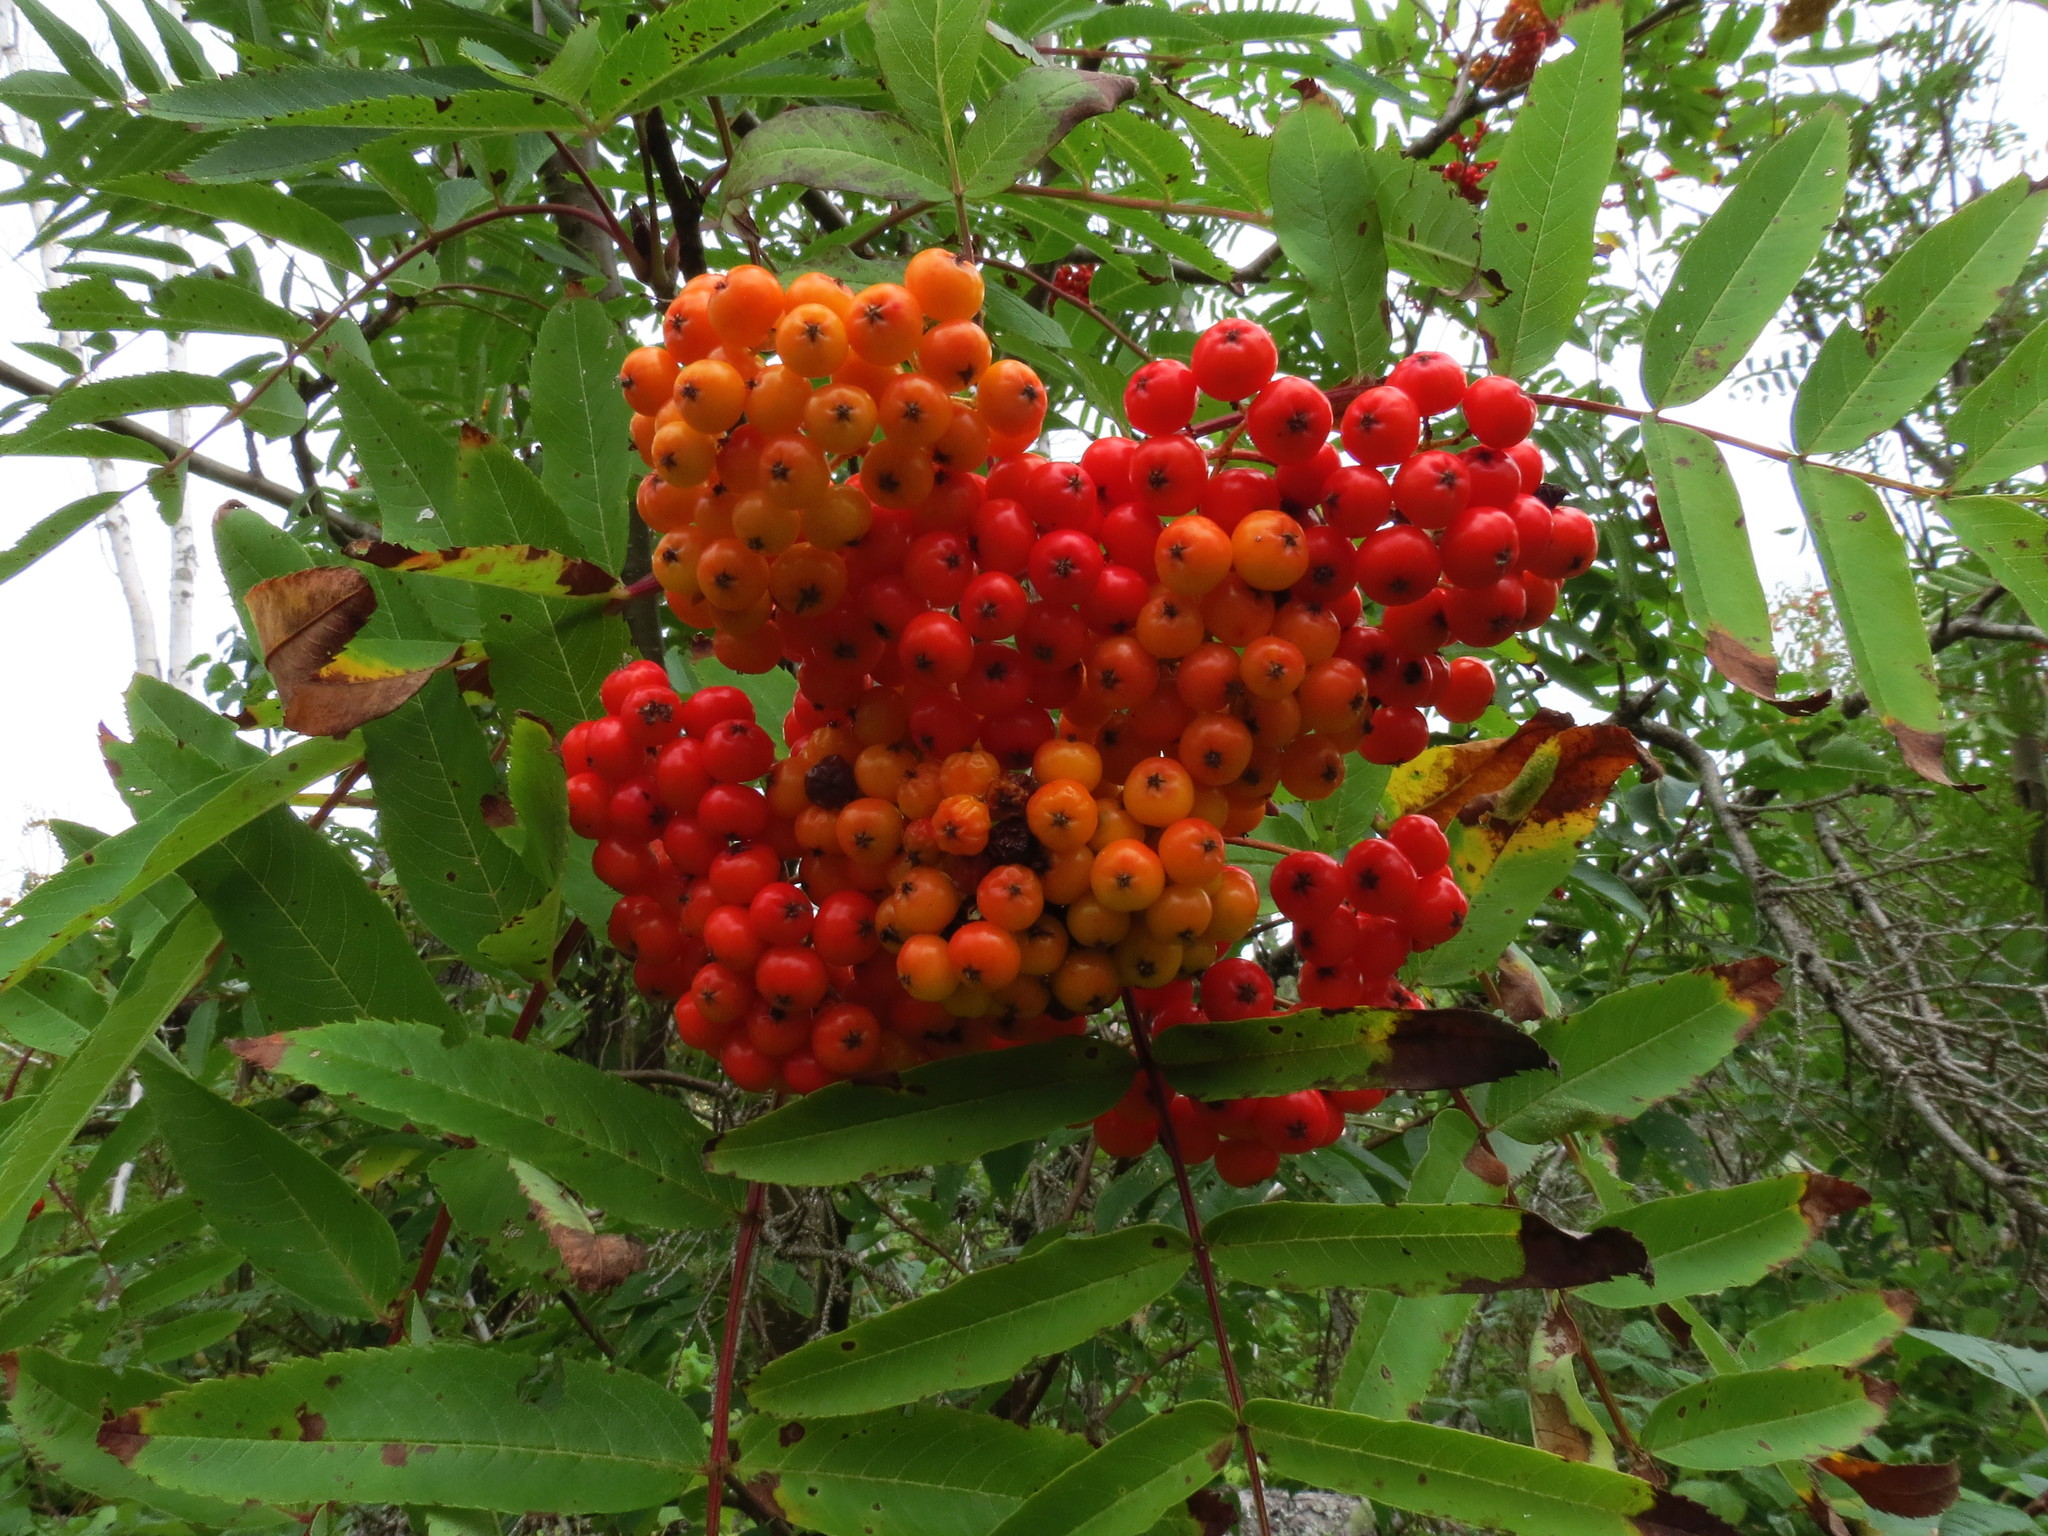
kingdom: Plantae
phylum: Tracheophyta
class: Magnoliopsida
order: Rosales
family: Rosaceae
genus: Sorbus
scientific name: Sorbus americana
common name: American mountain-ash
